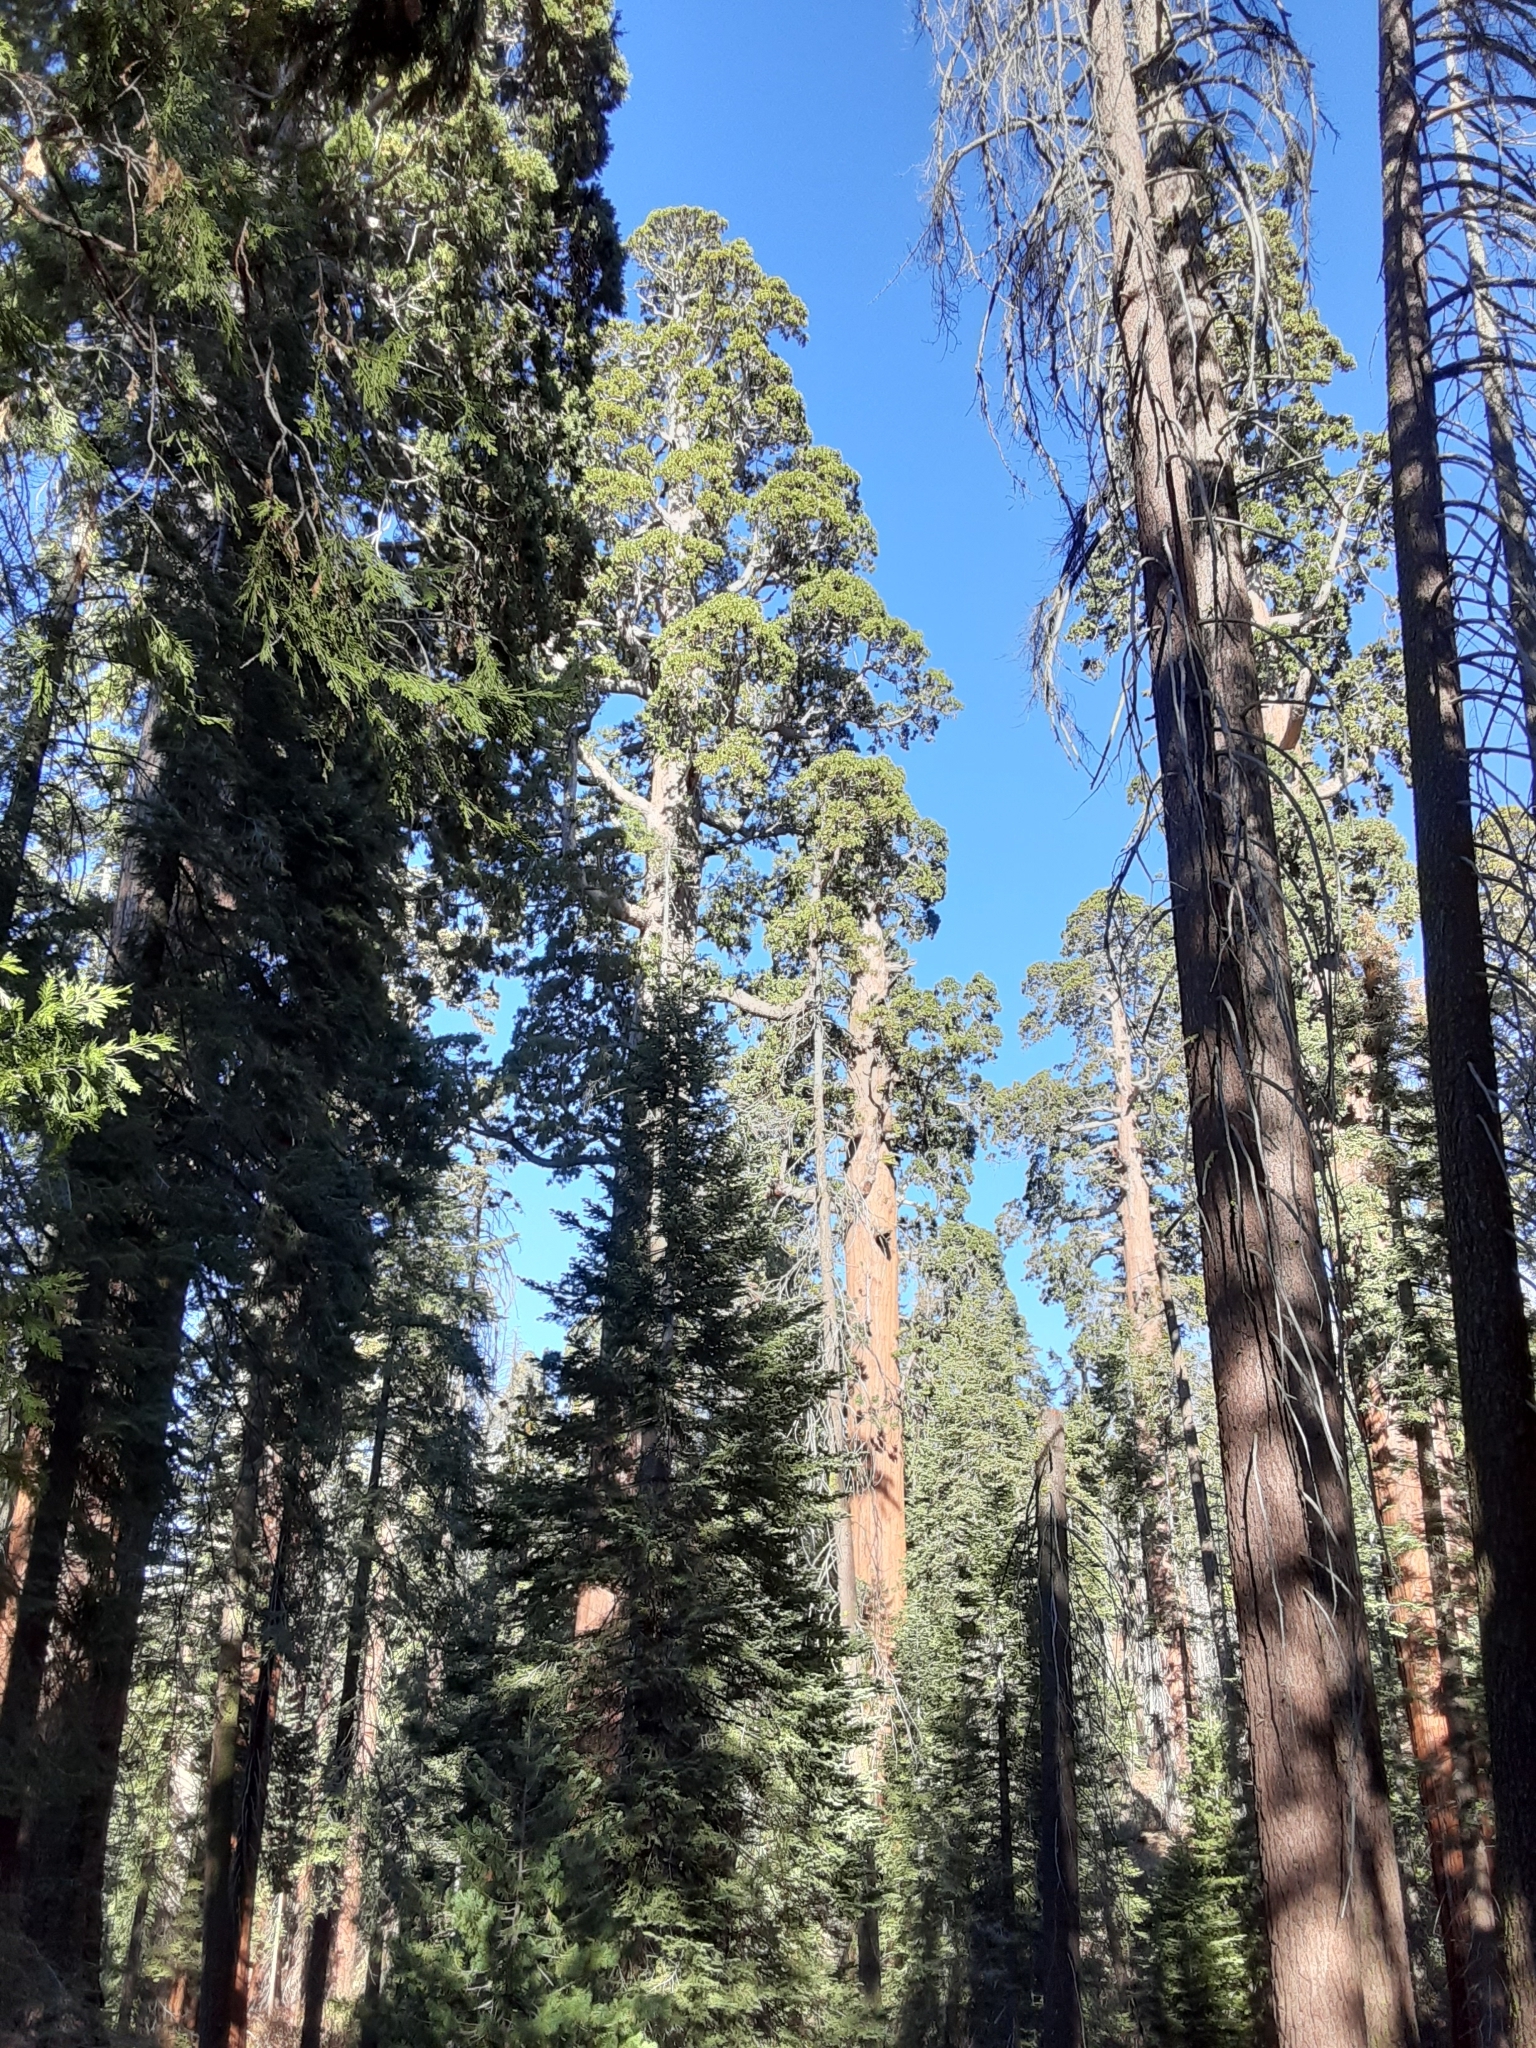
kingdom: Plantae
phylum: Tracheophyta
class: Pinopsida
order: Pinales
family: Cupressaceae
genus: Sequoiadendron
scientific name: Sequoiadendron giganteum
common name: Wellingtonia
